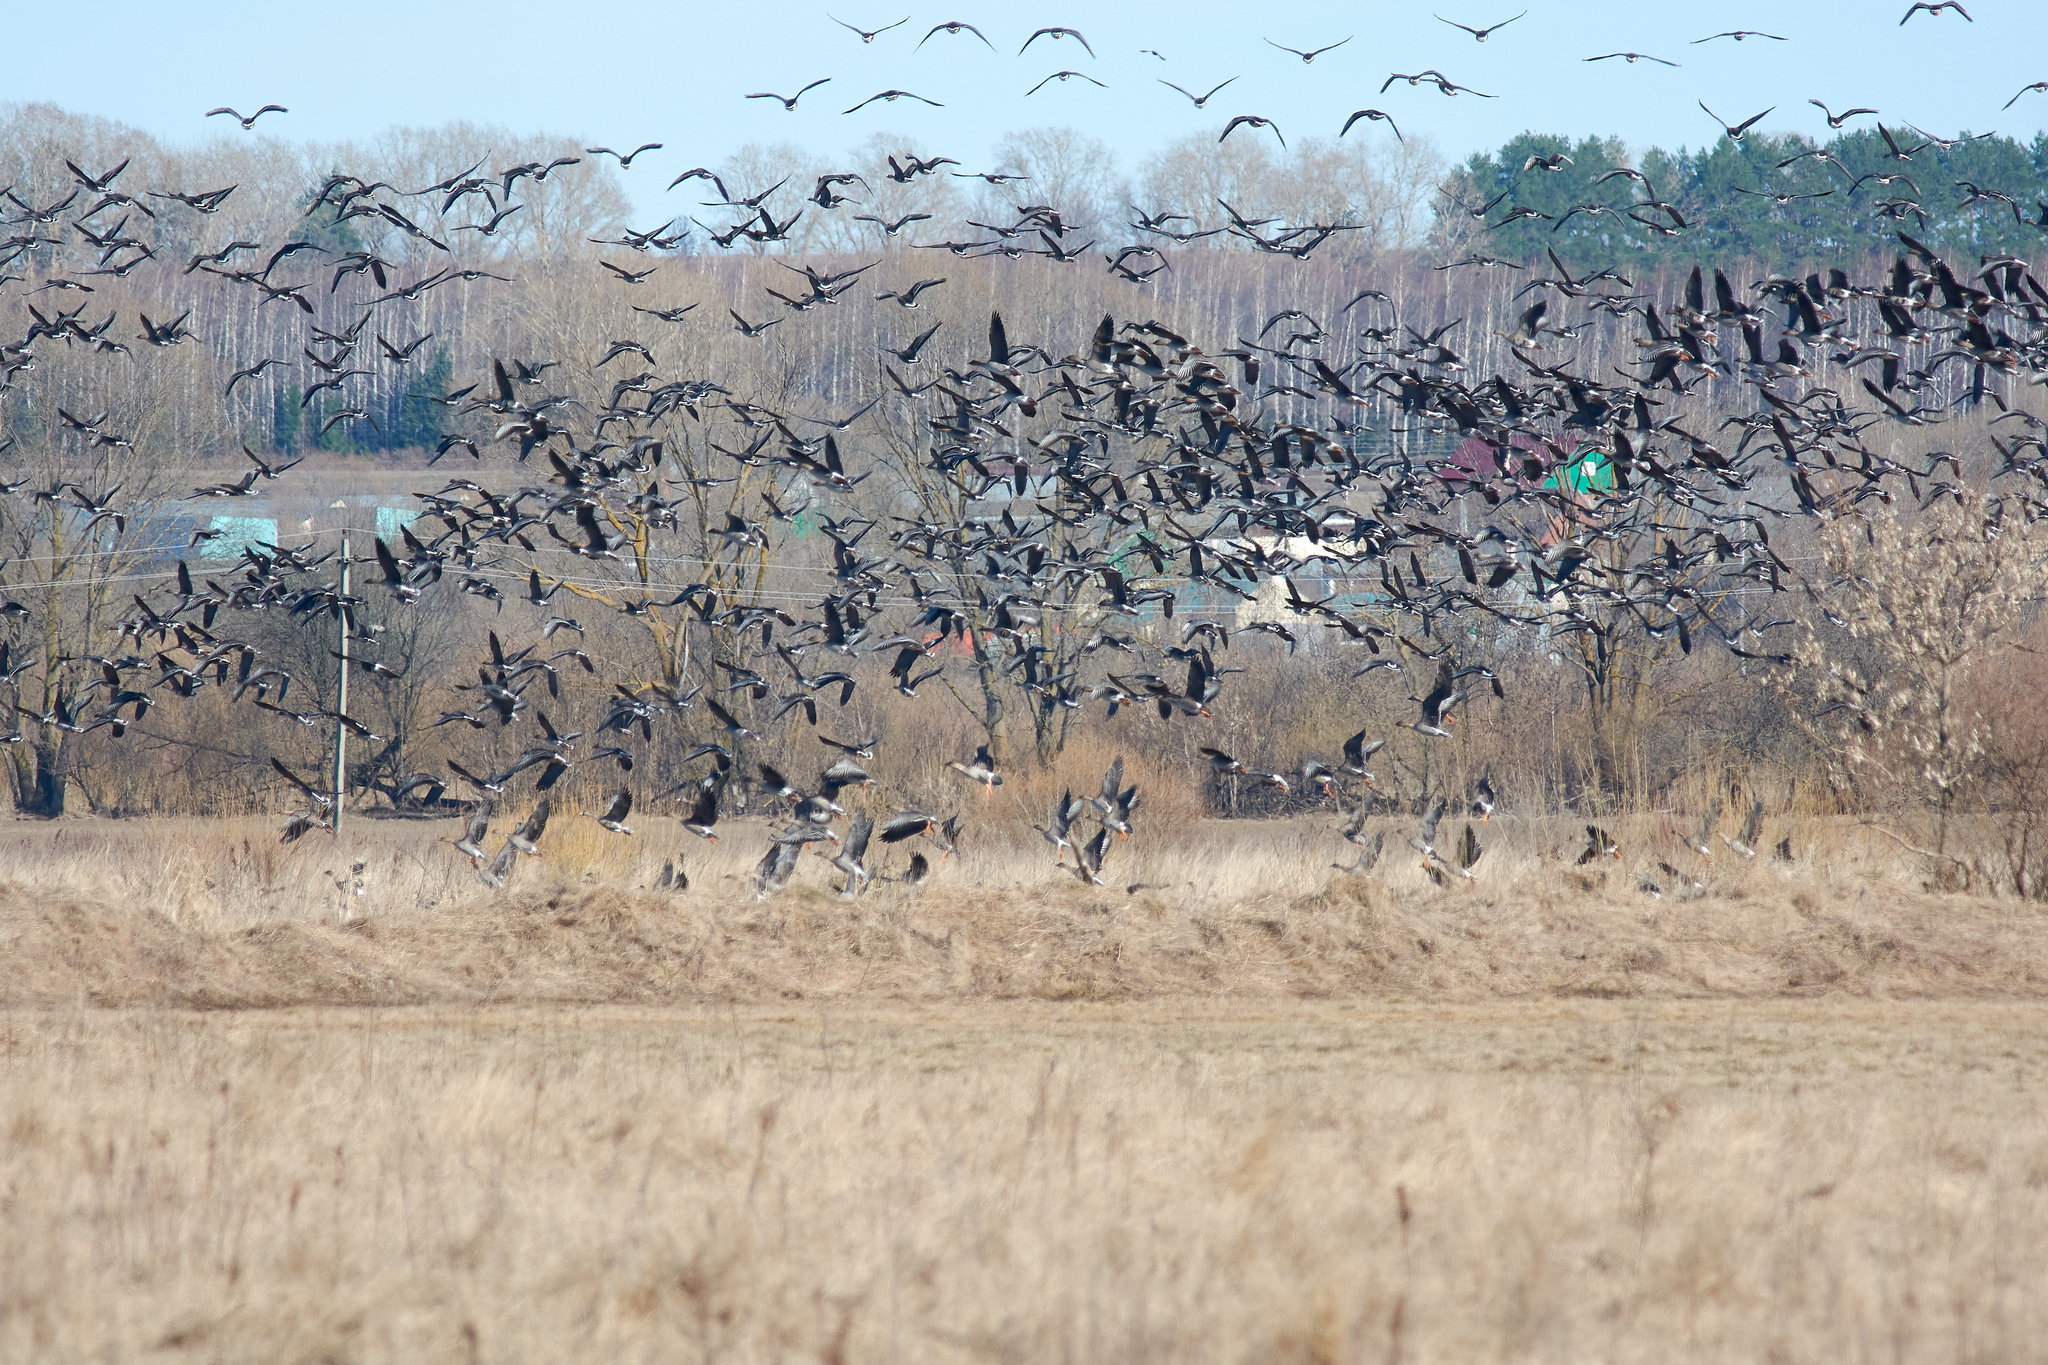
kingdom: Animalia
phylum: Chordata
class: Aves
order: Anseriformes
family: Anatidae
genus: Anser
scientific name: Anser serrirostris
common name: Tundra bean goose
